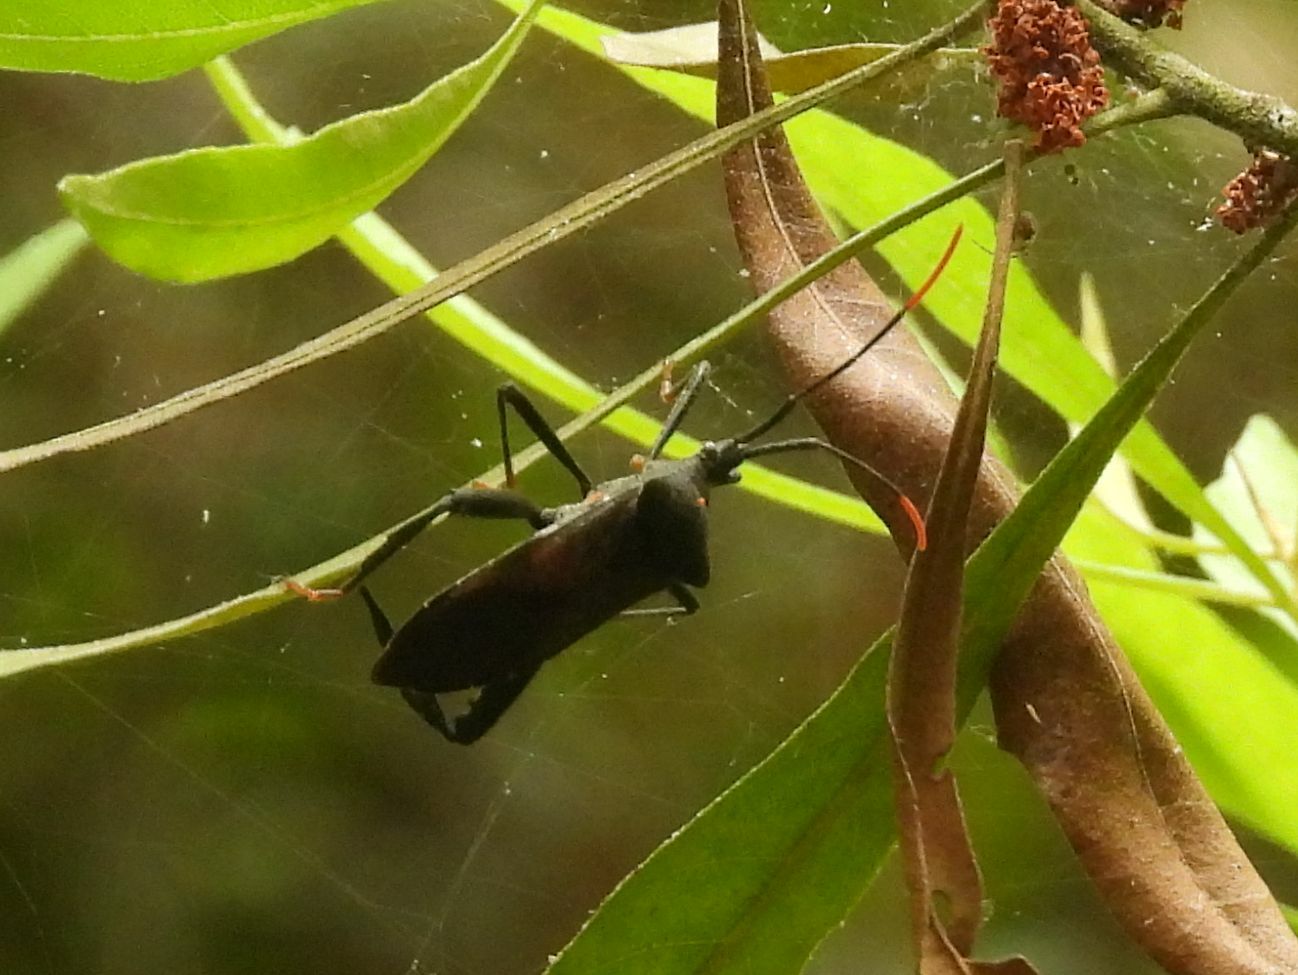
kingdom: Animalia
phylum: Arthropoda
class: Insecta
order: Hemiptera
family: Coreidae
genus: Acanthocephala
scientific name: Acanthocephala terminalis
